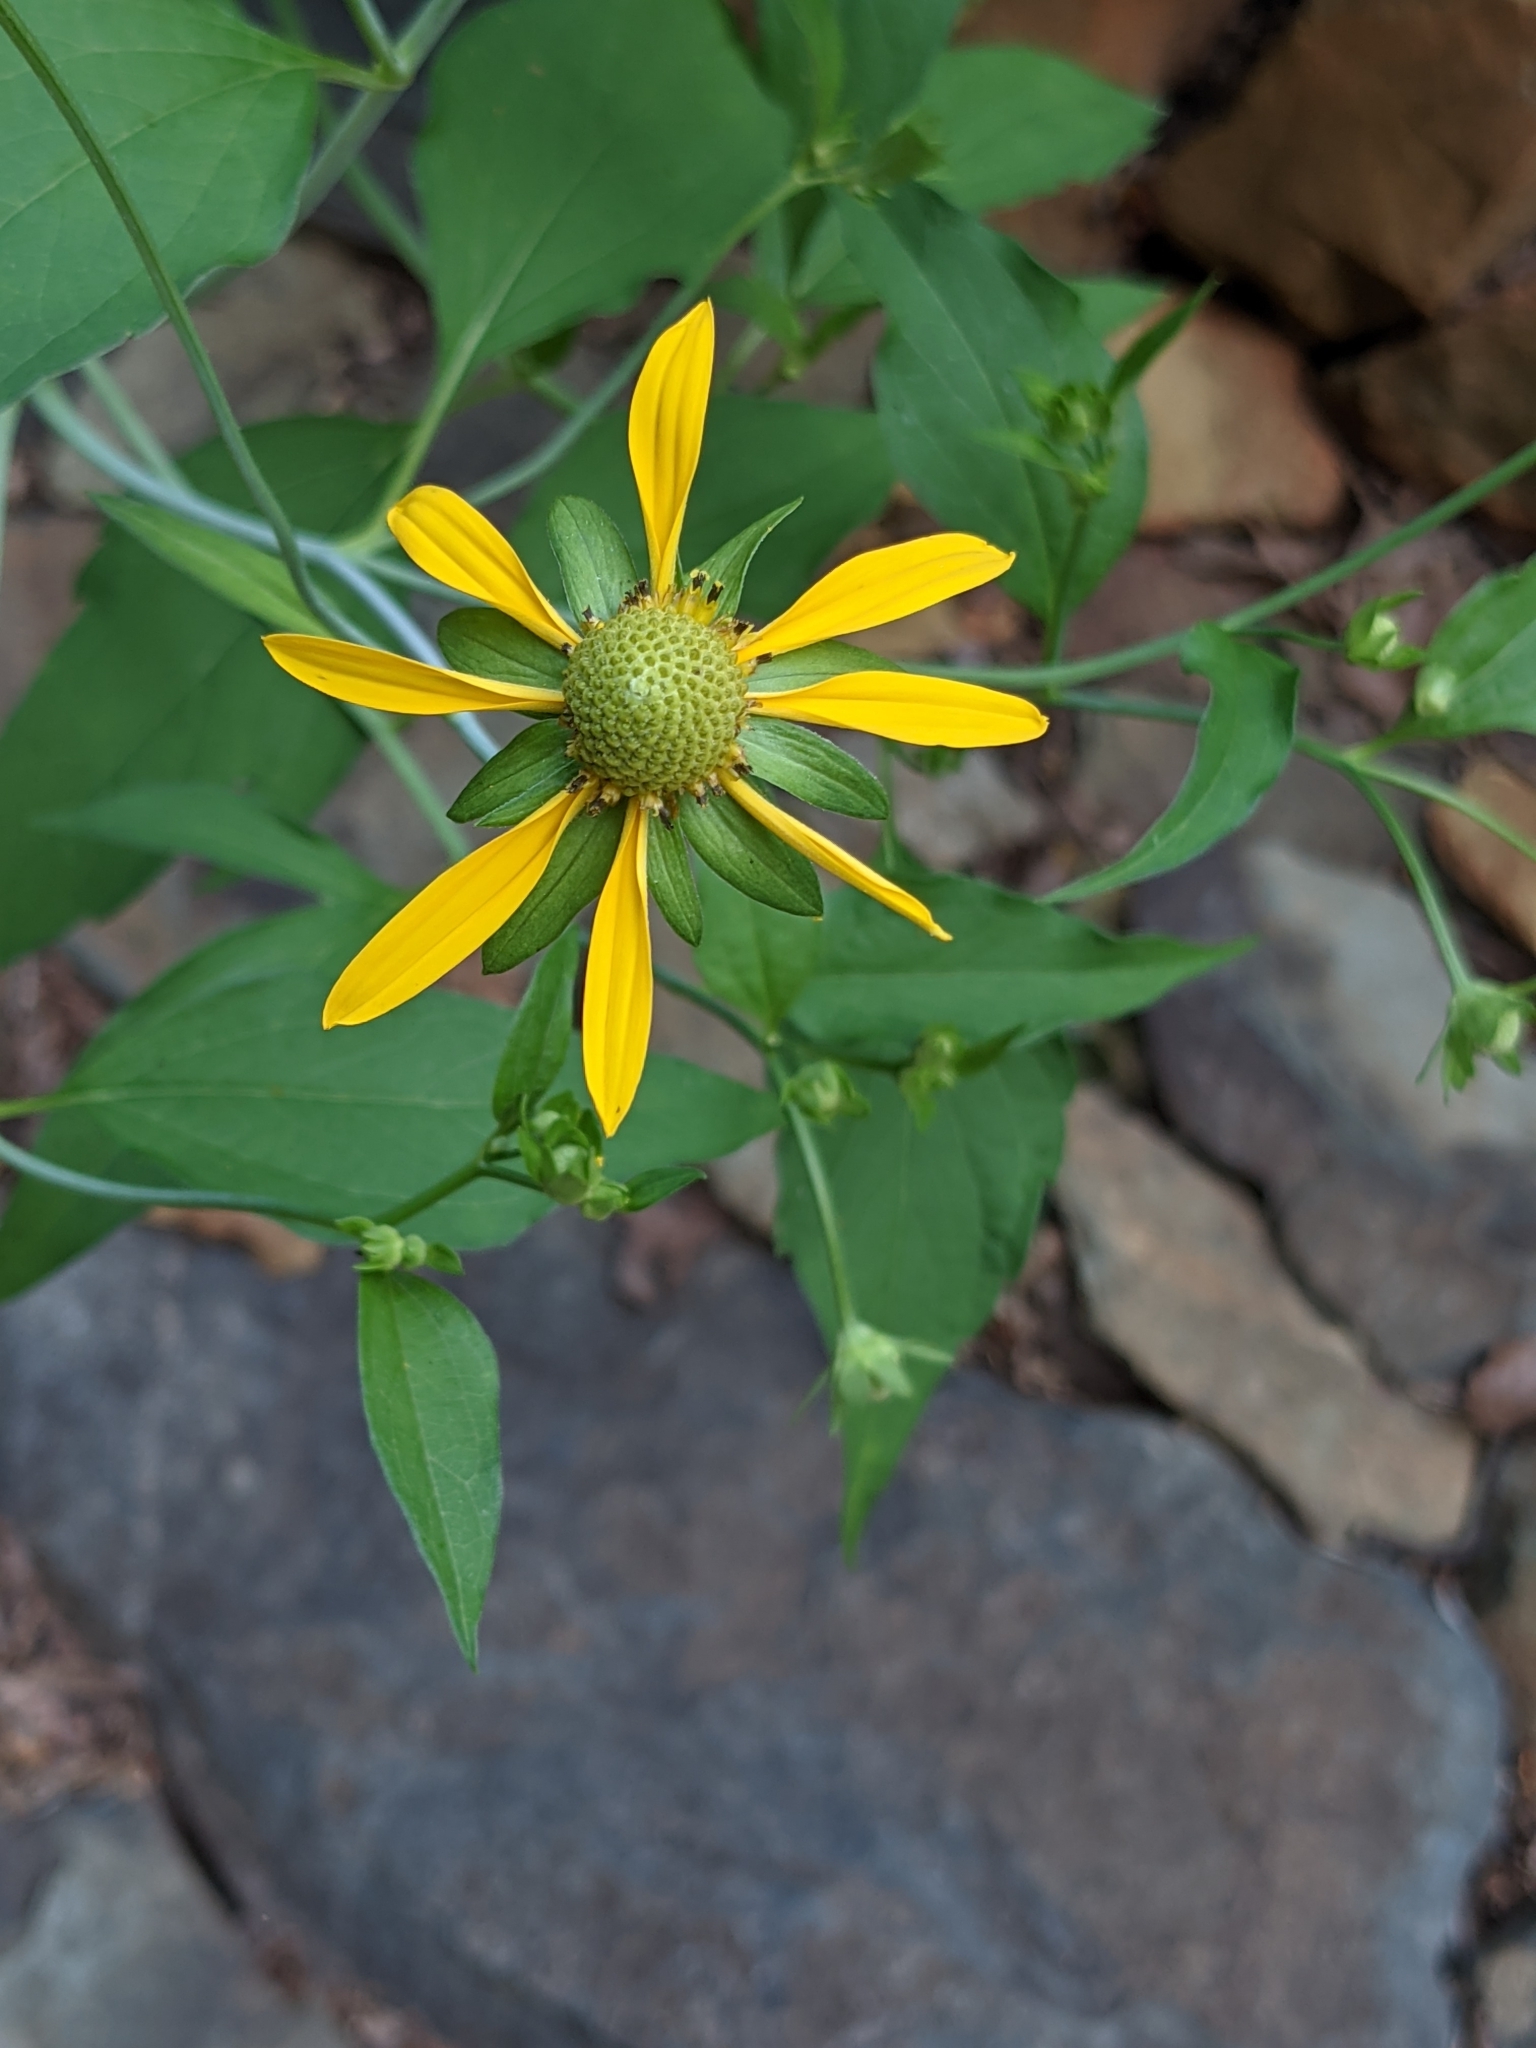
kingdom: Plantae
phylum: Tracheophyta
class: Magnoliopsida
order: Asterales
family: Asteraceae
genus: Rudbeckia
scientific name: Rudbeckia laciniata
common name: Coneflower
